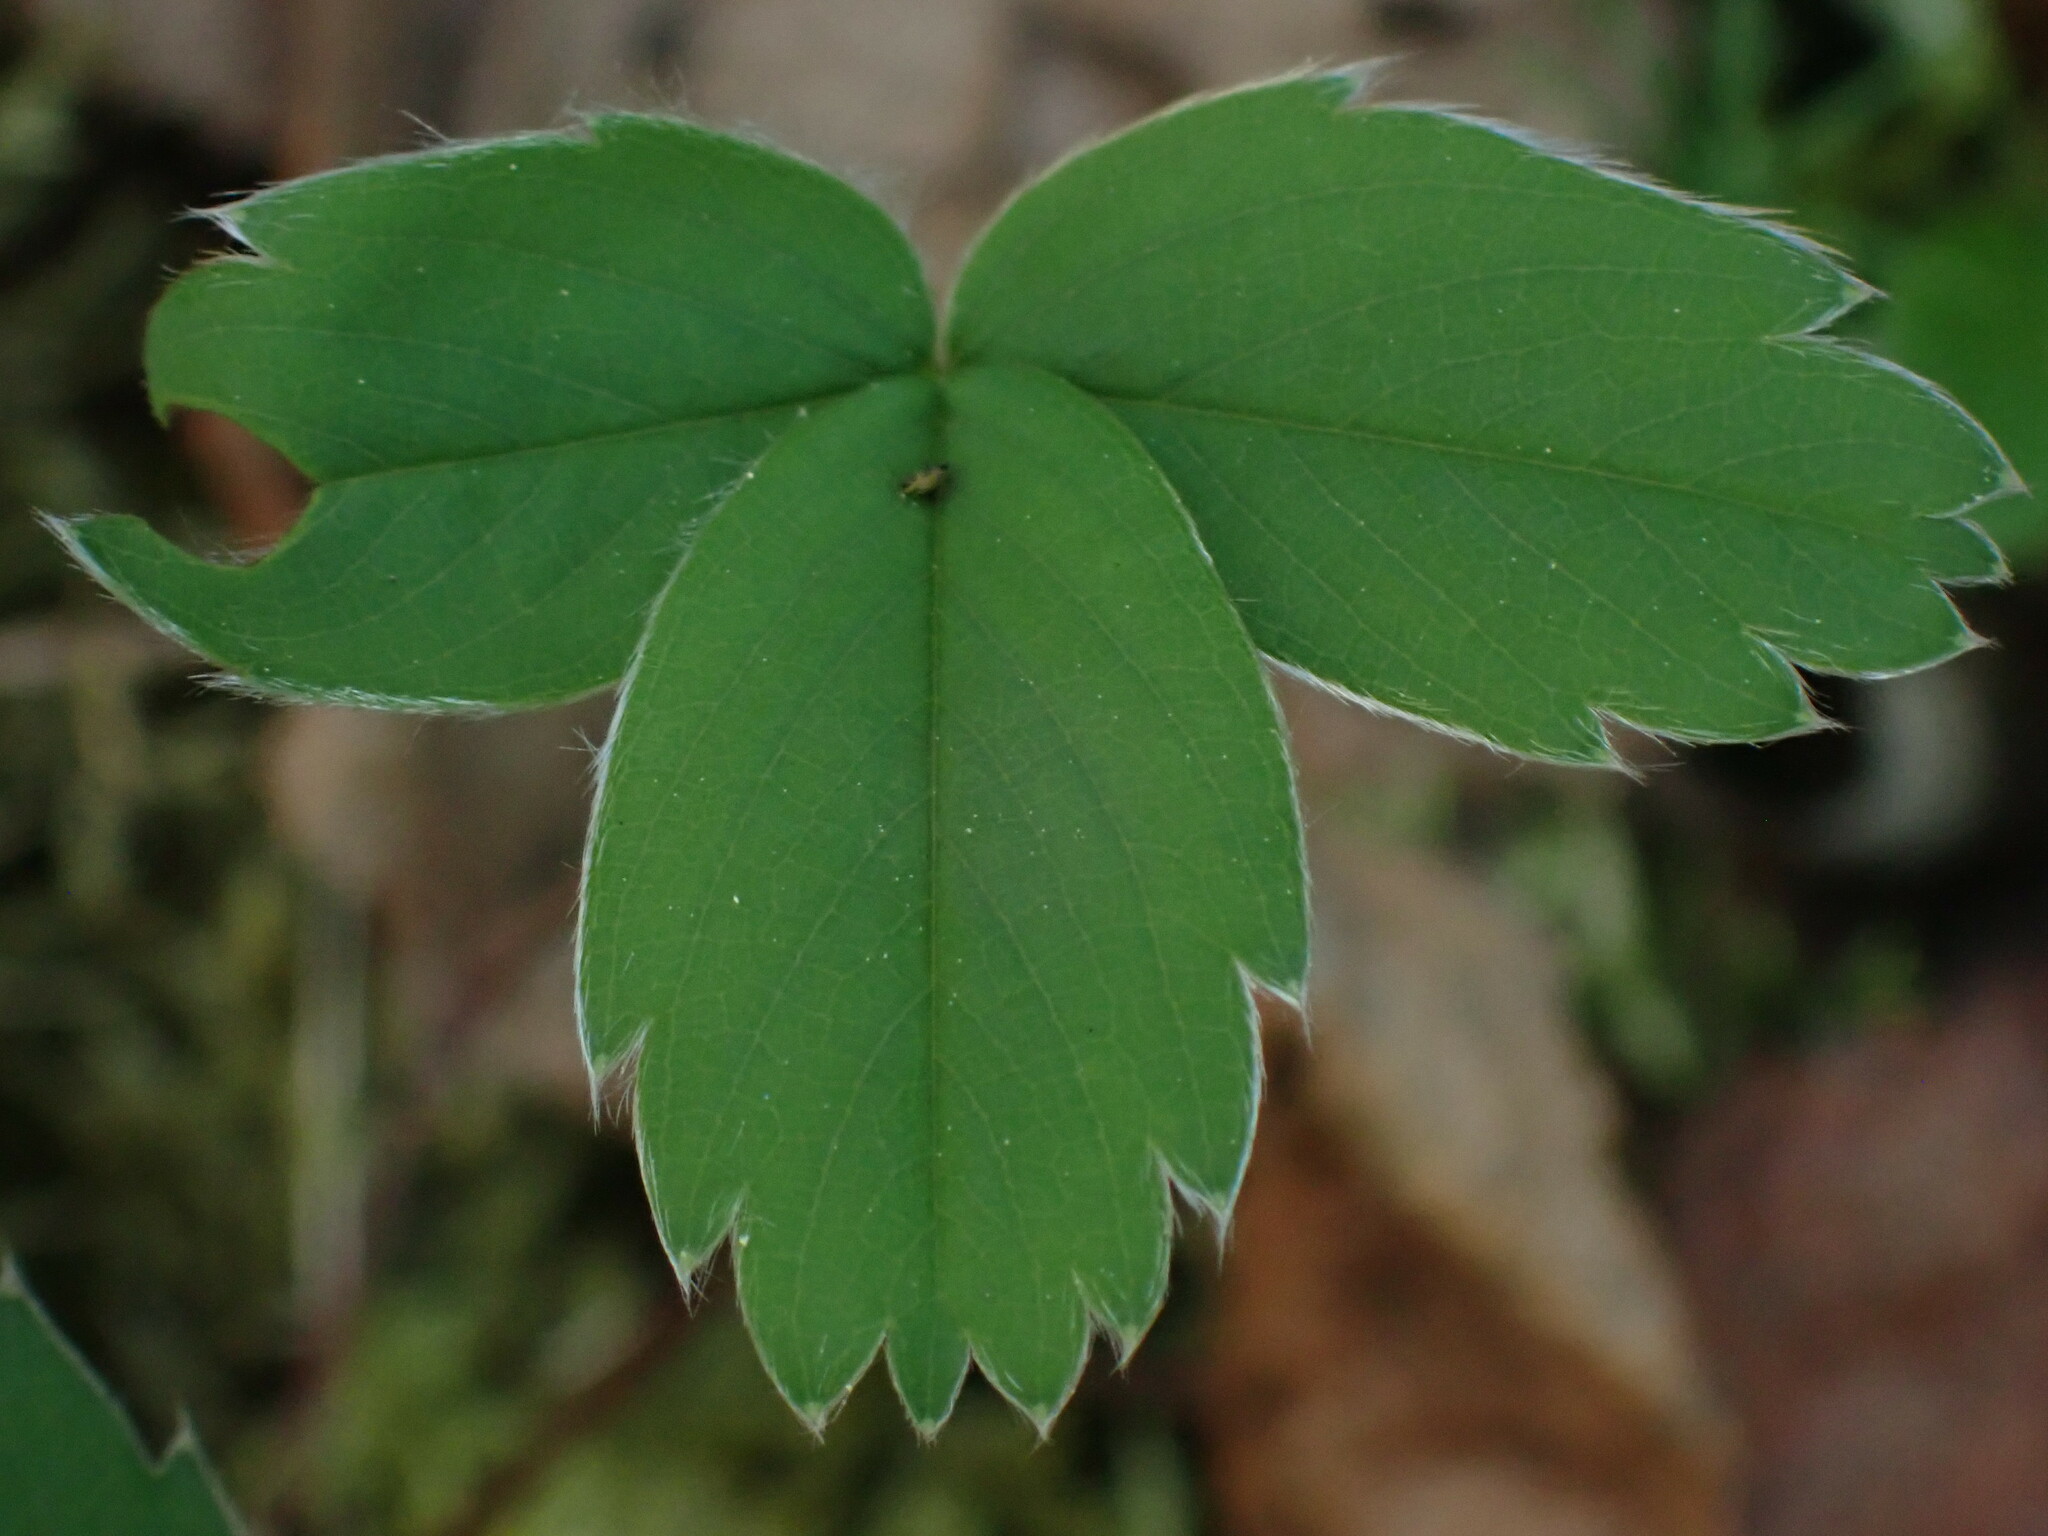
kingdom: Plantae
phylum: Tracheophyta
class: Magnoliopsida
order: Rosales
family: Rosaceae
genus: Fragaria
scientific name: Fragaria virginiana
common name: Thickleaved wild strawberry
